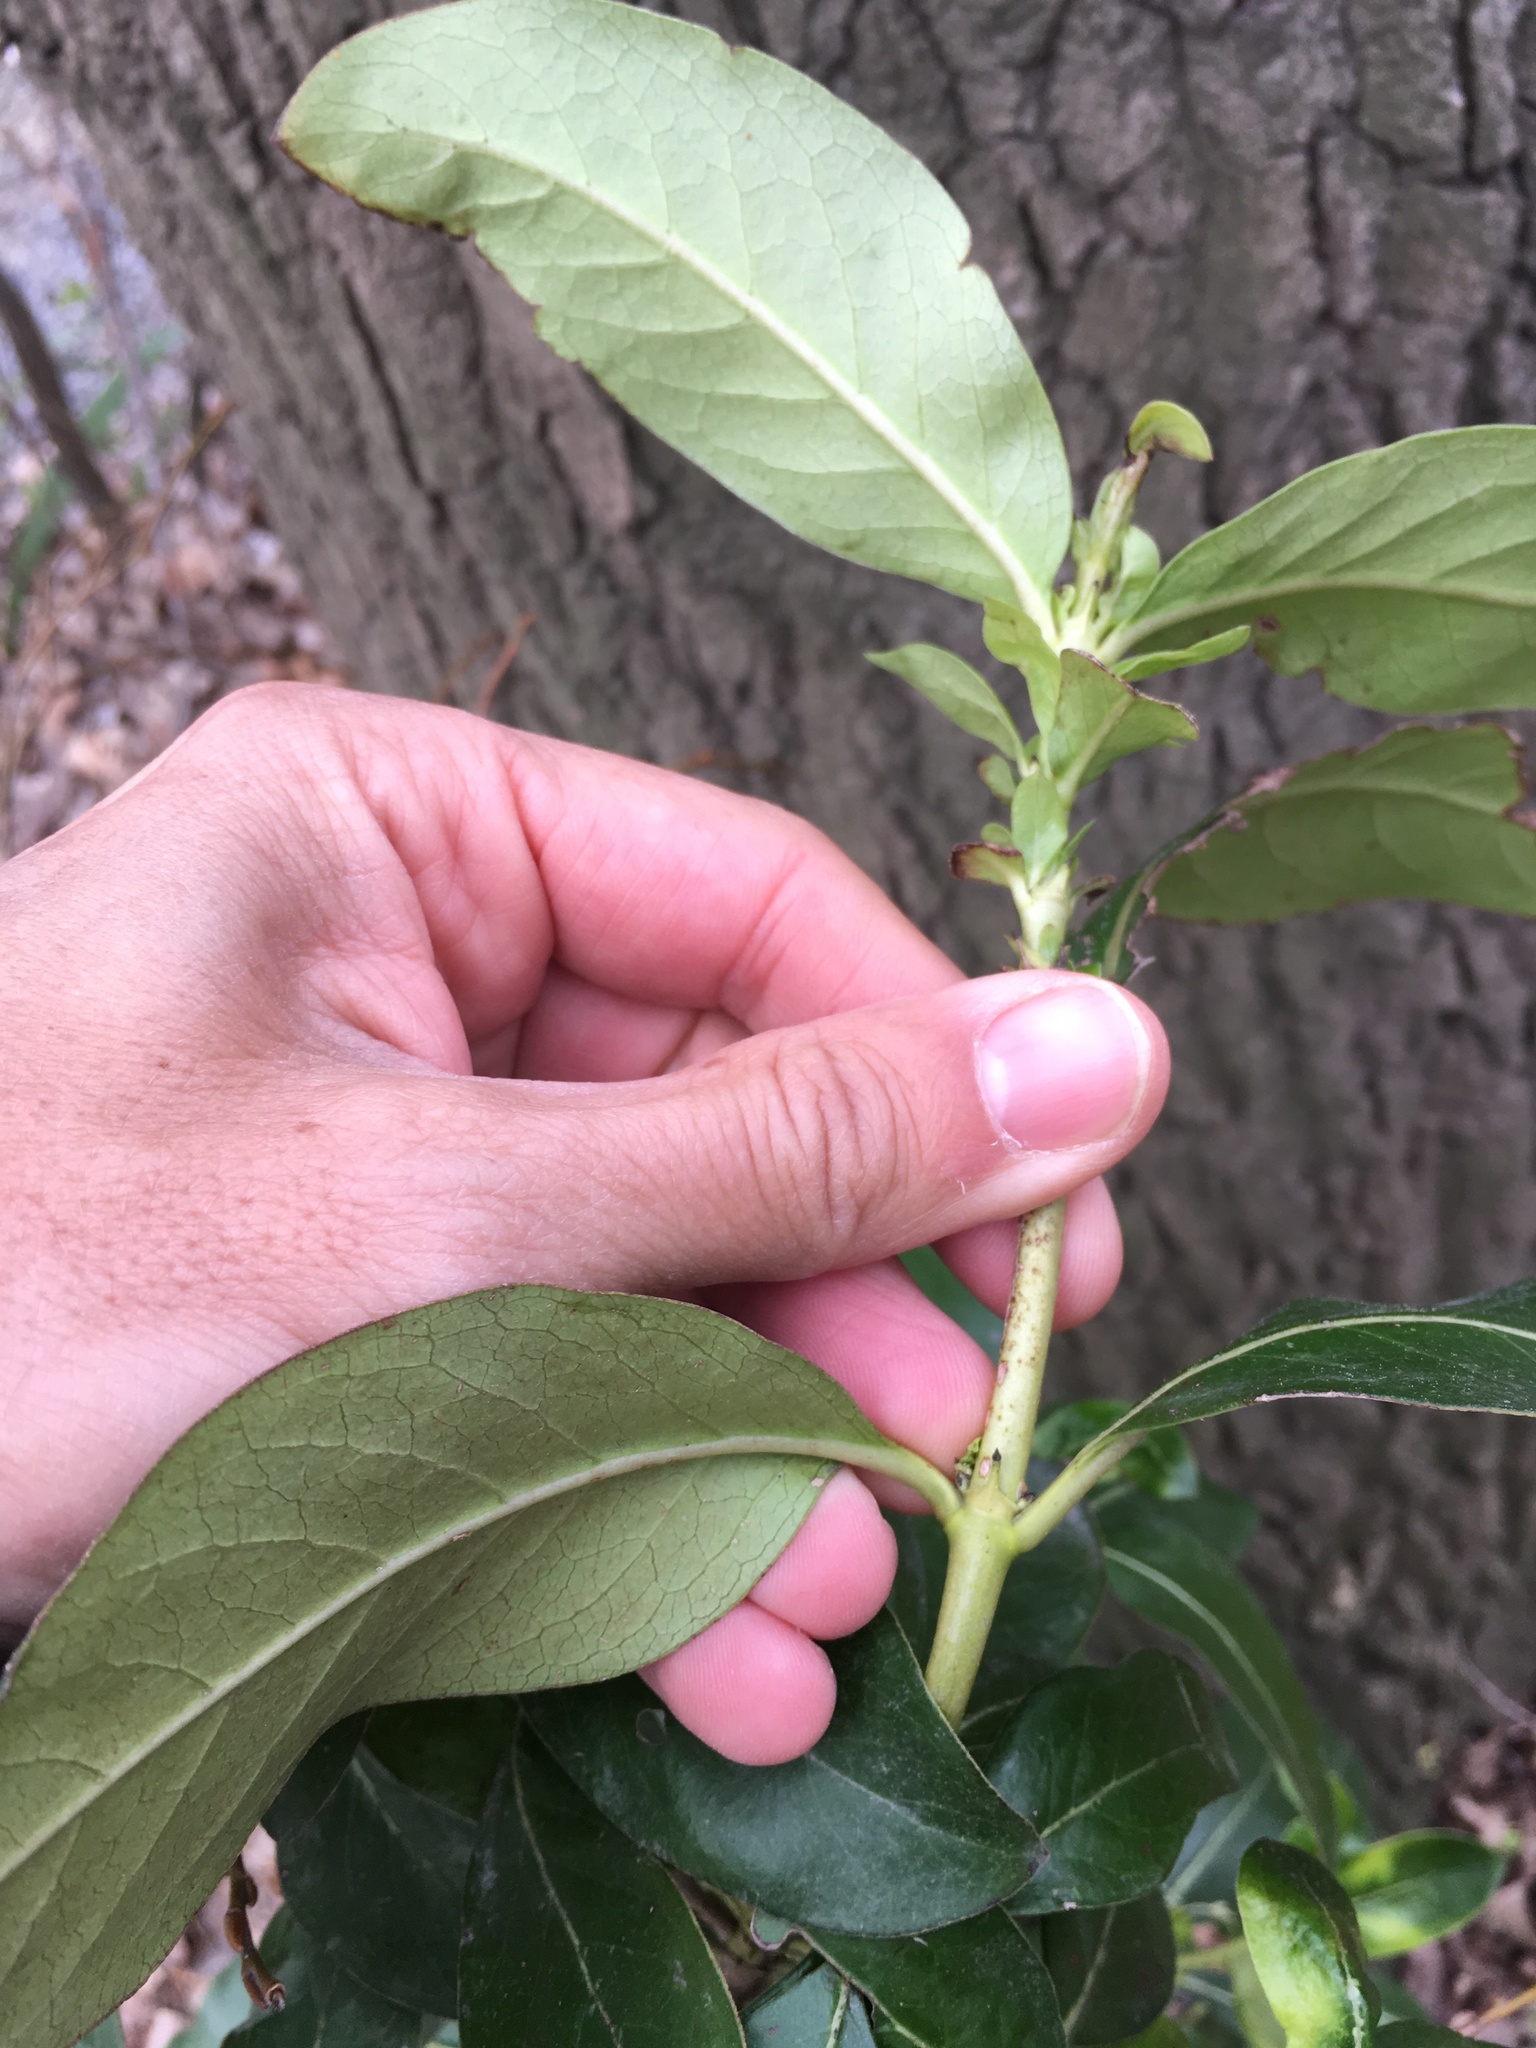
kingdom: Plantae
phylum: Tracheophyta
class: Magnoliopsida
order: Gentianales
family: Rubiaceae
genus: Coprosma
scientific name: Coprosma robusta
